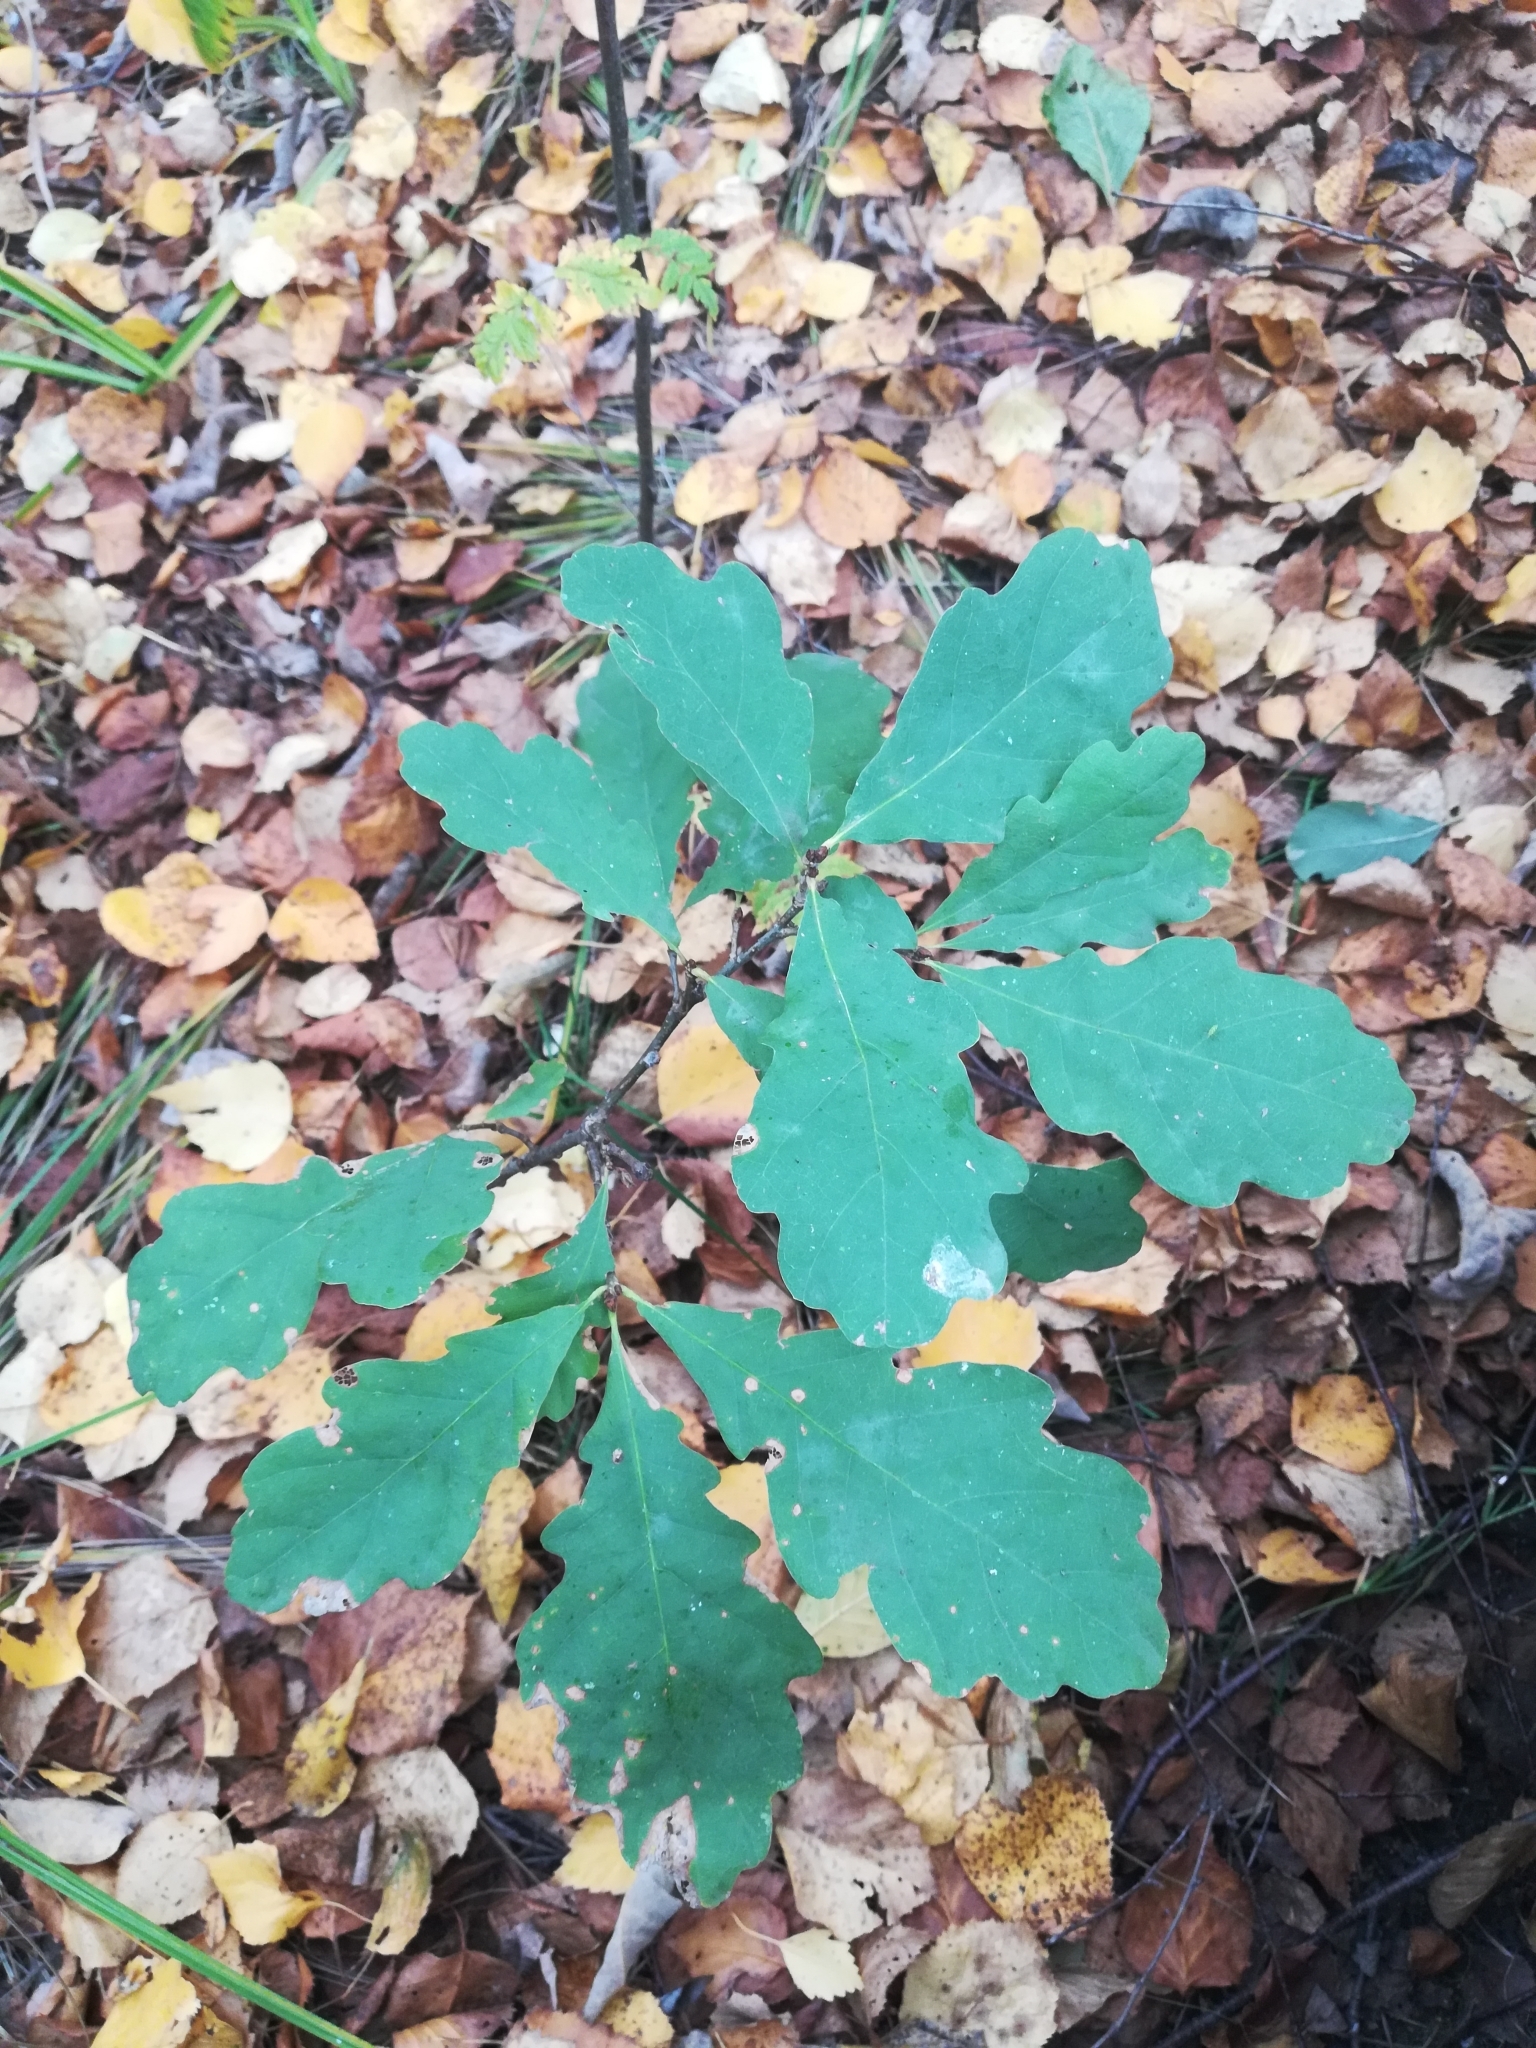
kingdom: Plantae
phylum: Tracheophyta
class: Magnoliopsida
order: Fagales
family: Fagaceae
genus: Quercus
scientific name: Quercus robur
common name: Pedunculate oak
